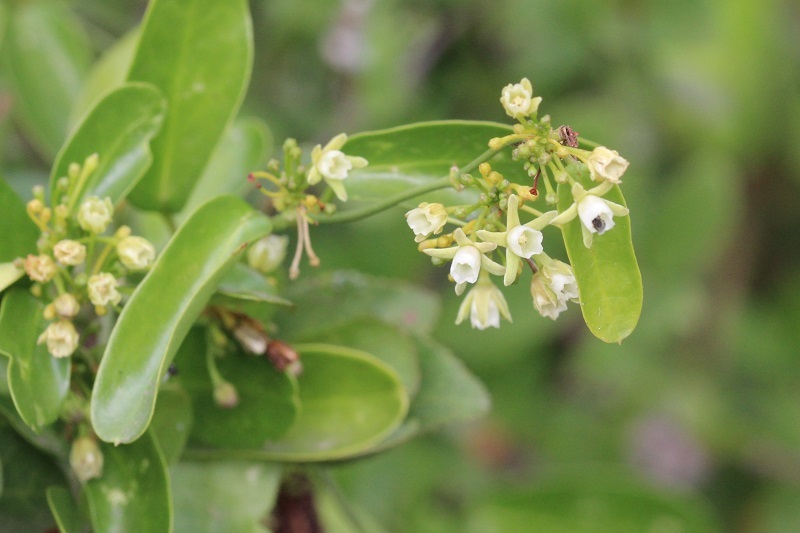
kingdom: Plantae
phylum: Tracheophyta
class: Magnoliopsida
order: Gentianales
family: Apocynaceae
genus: Cynanchum
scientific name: Cynanchum ellipticum
